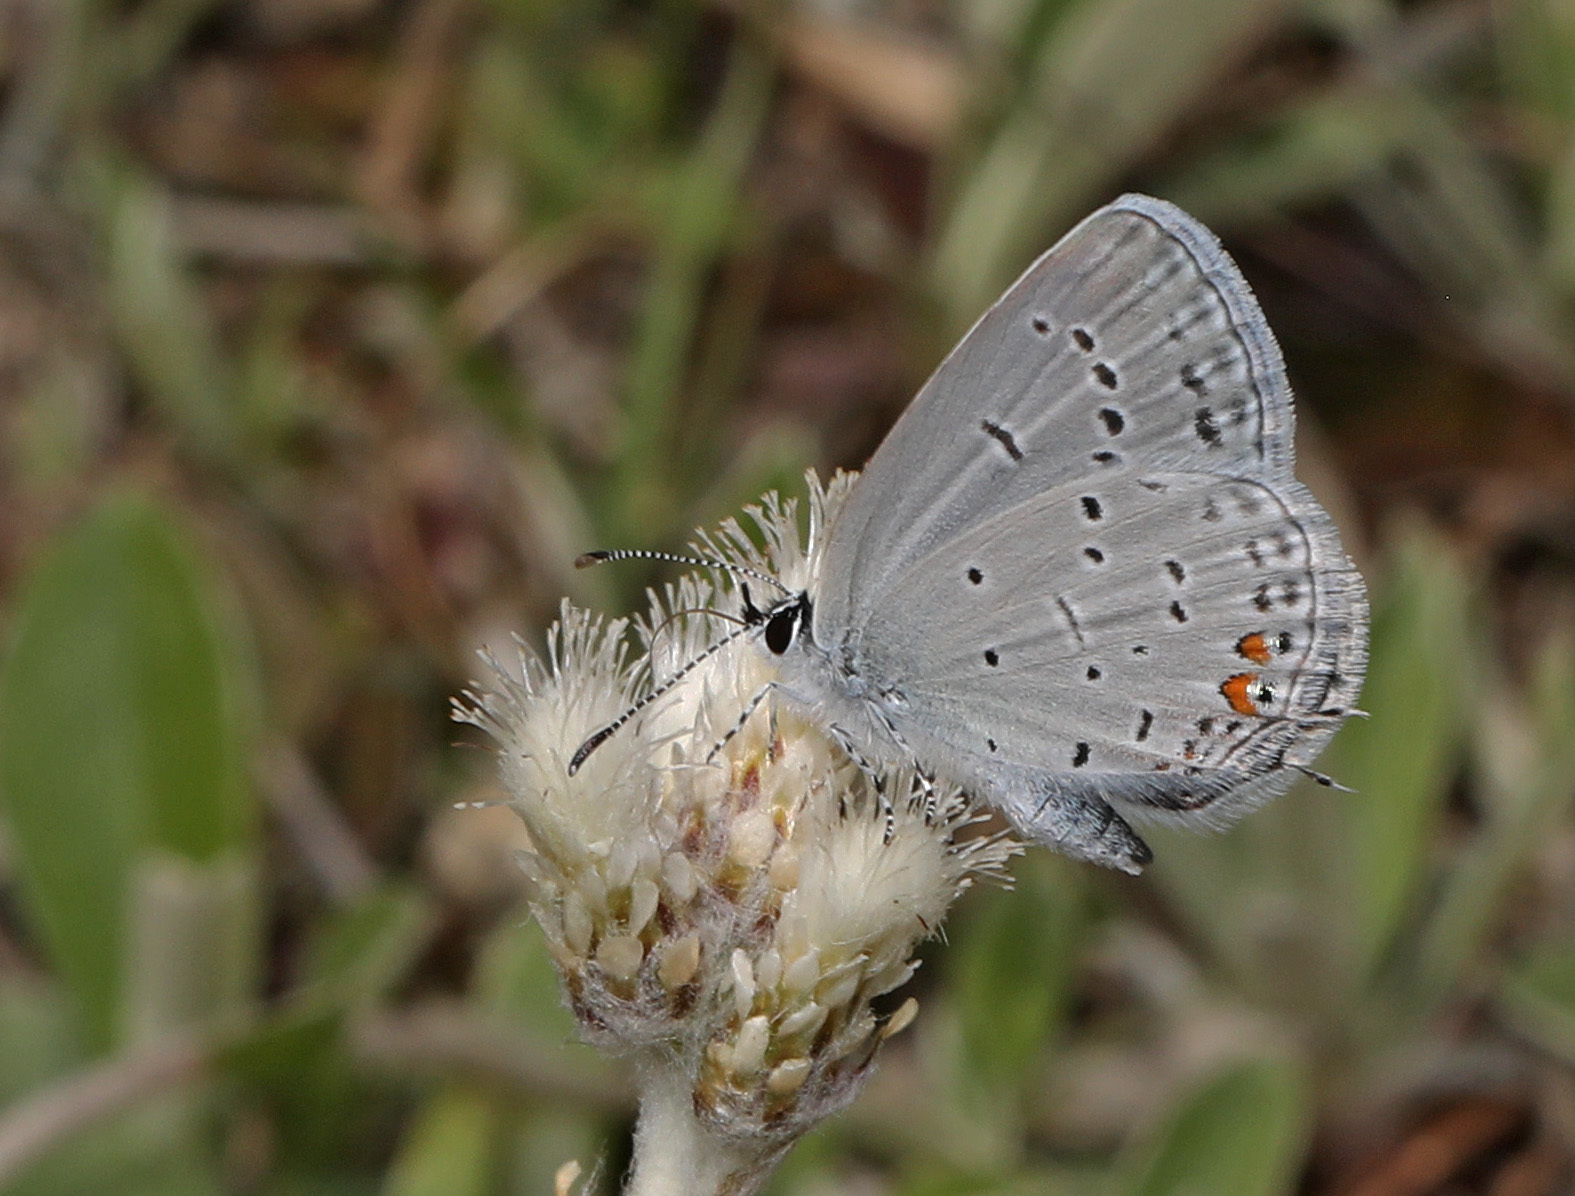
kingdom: Animalia
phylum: Arthropoda
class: Insecta
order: Lepidoptera
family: Lycaenidae
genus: Elkalyce
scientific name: Elkalyce comyntas
